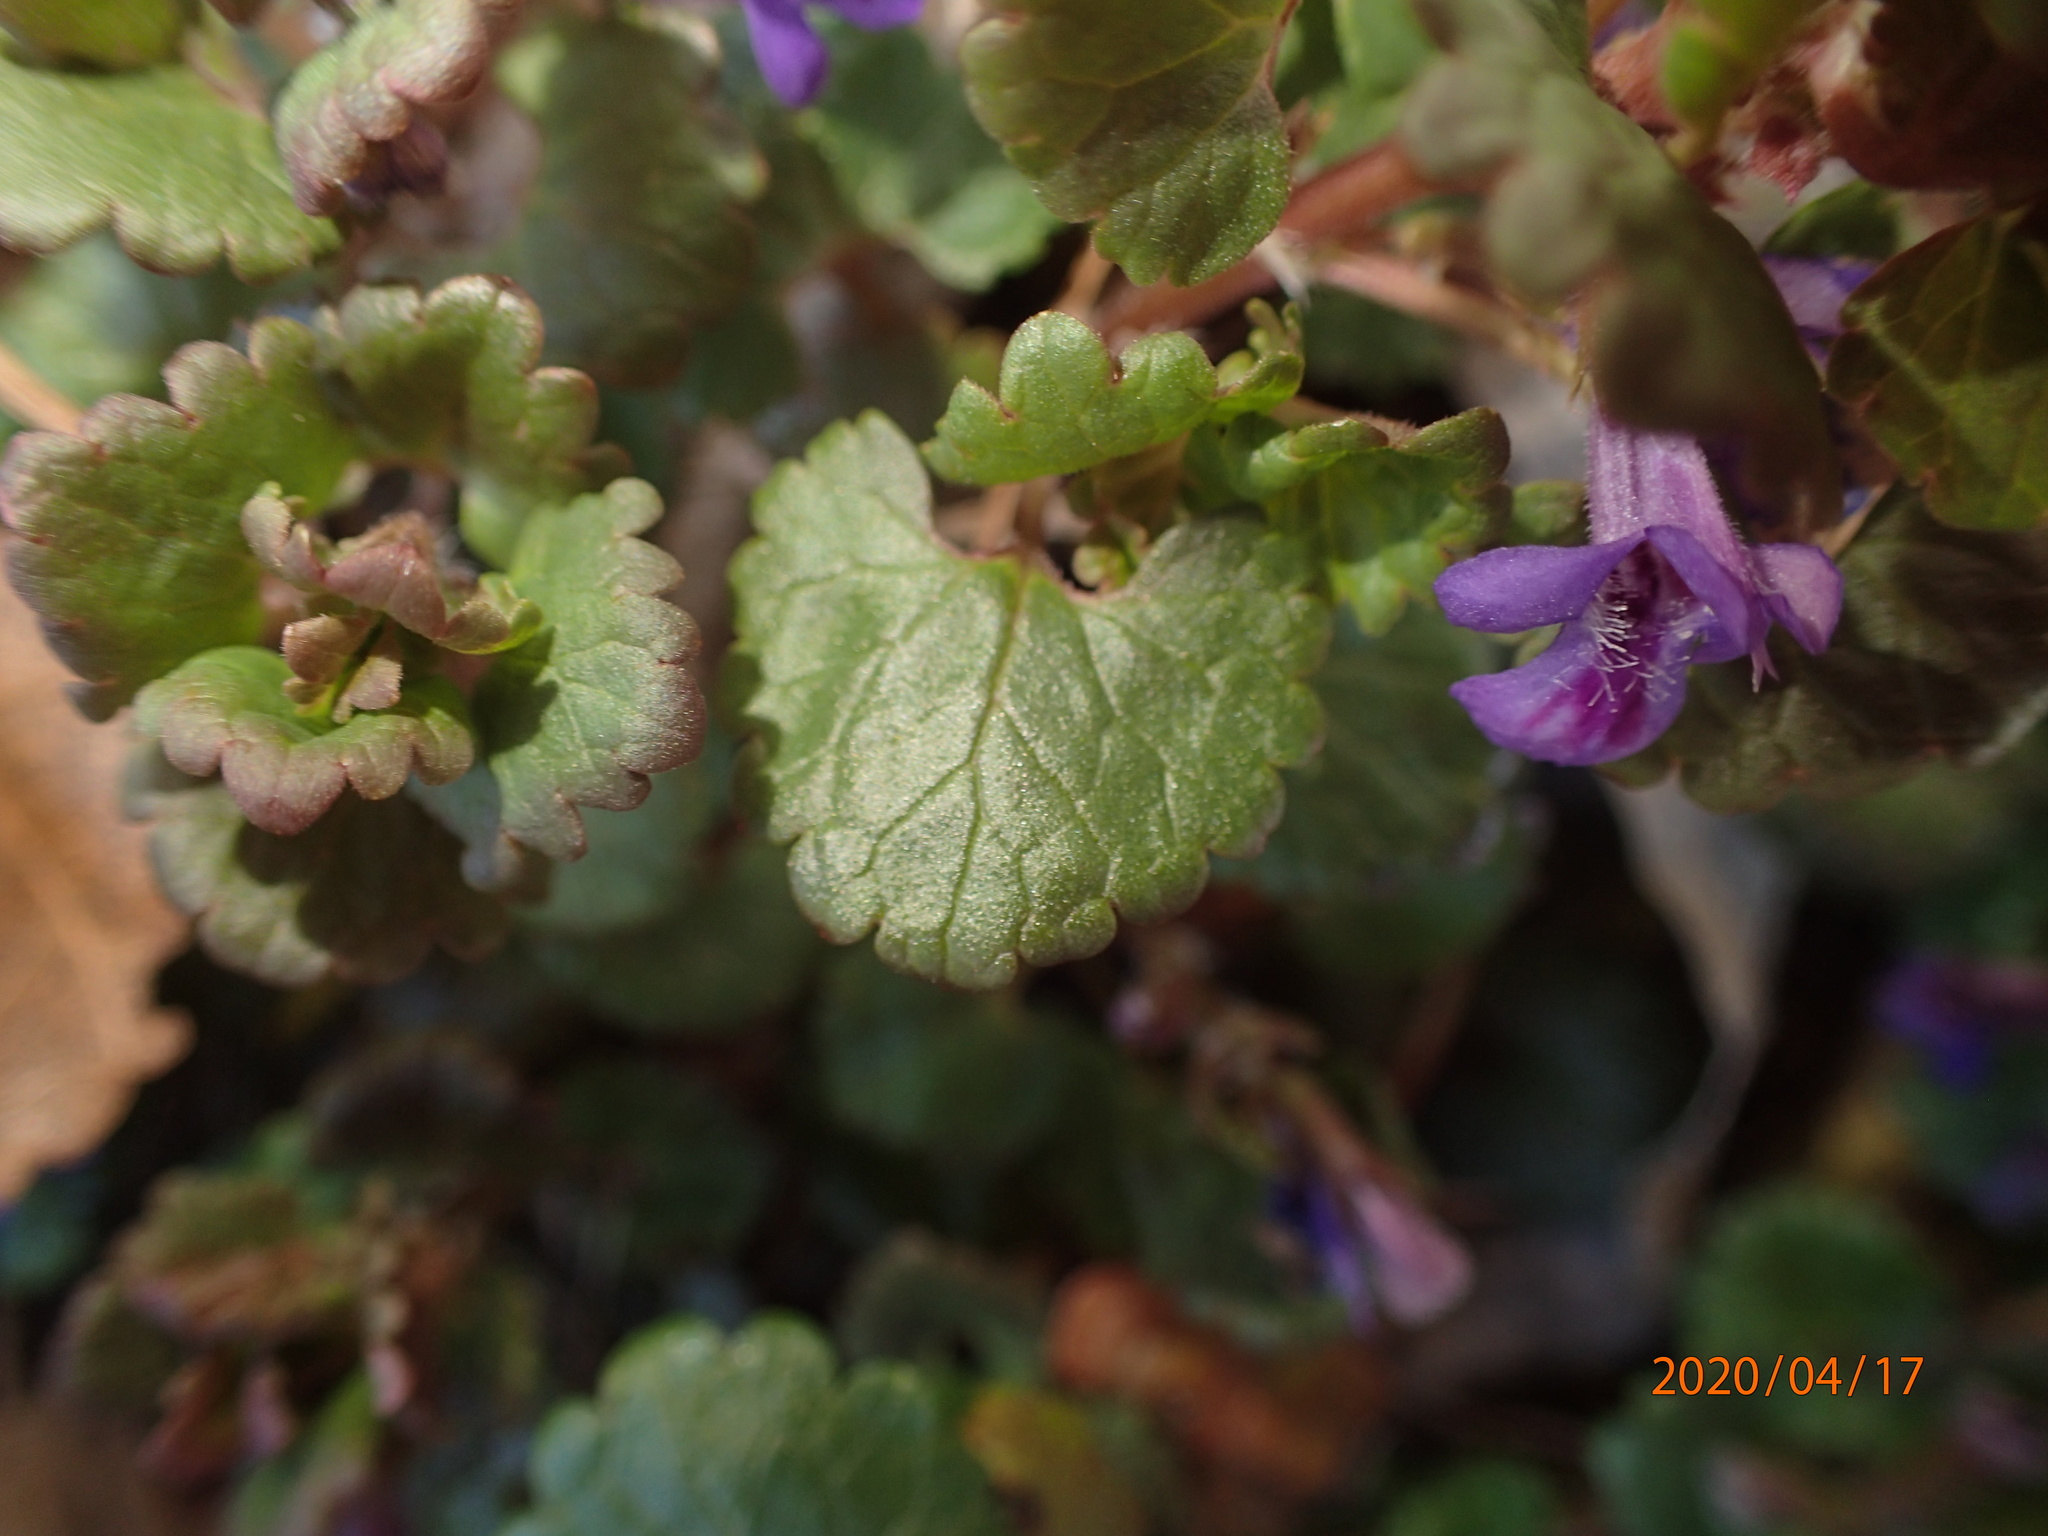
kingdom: Plantae
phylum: Tracheophyta
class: Magnoliopsida
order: Lamiales
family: Lamiaceae
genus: Glechoma
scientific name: Glechoma hederacea
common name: Ground ivy
